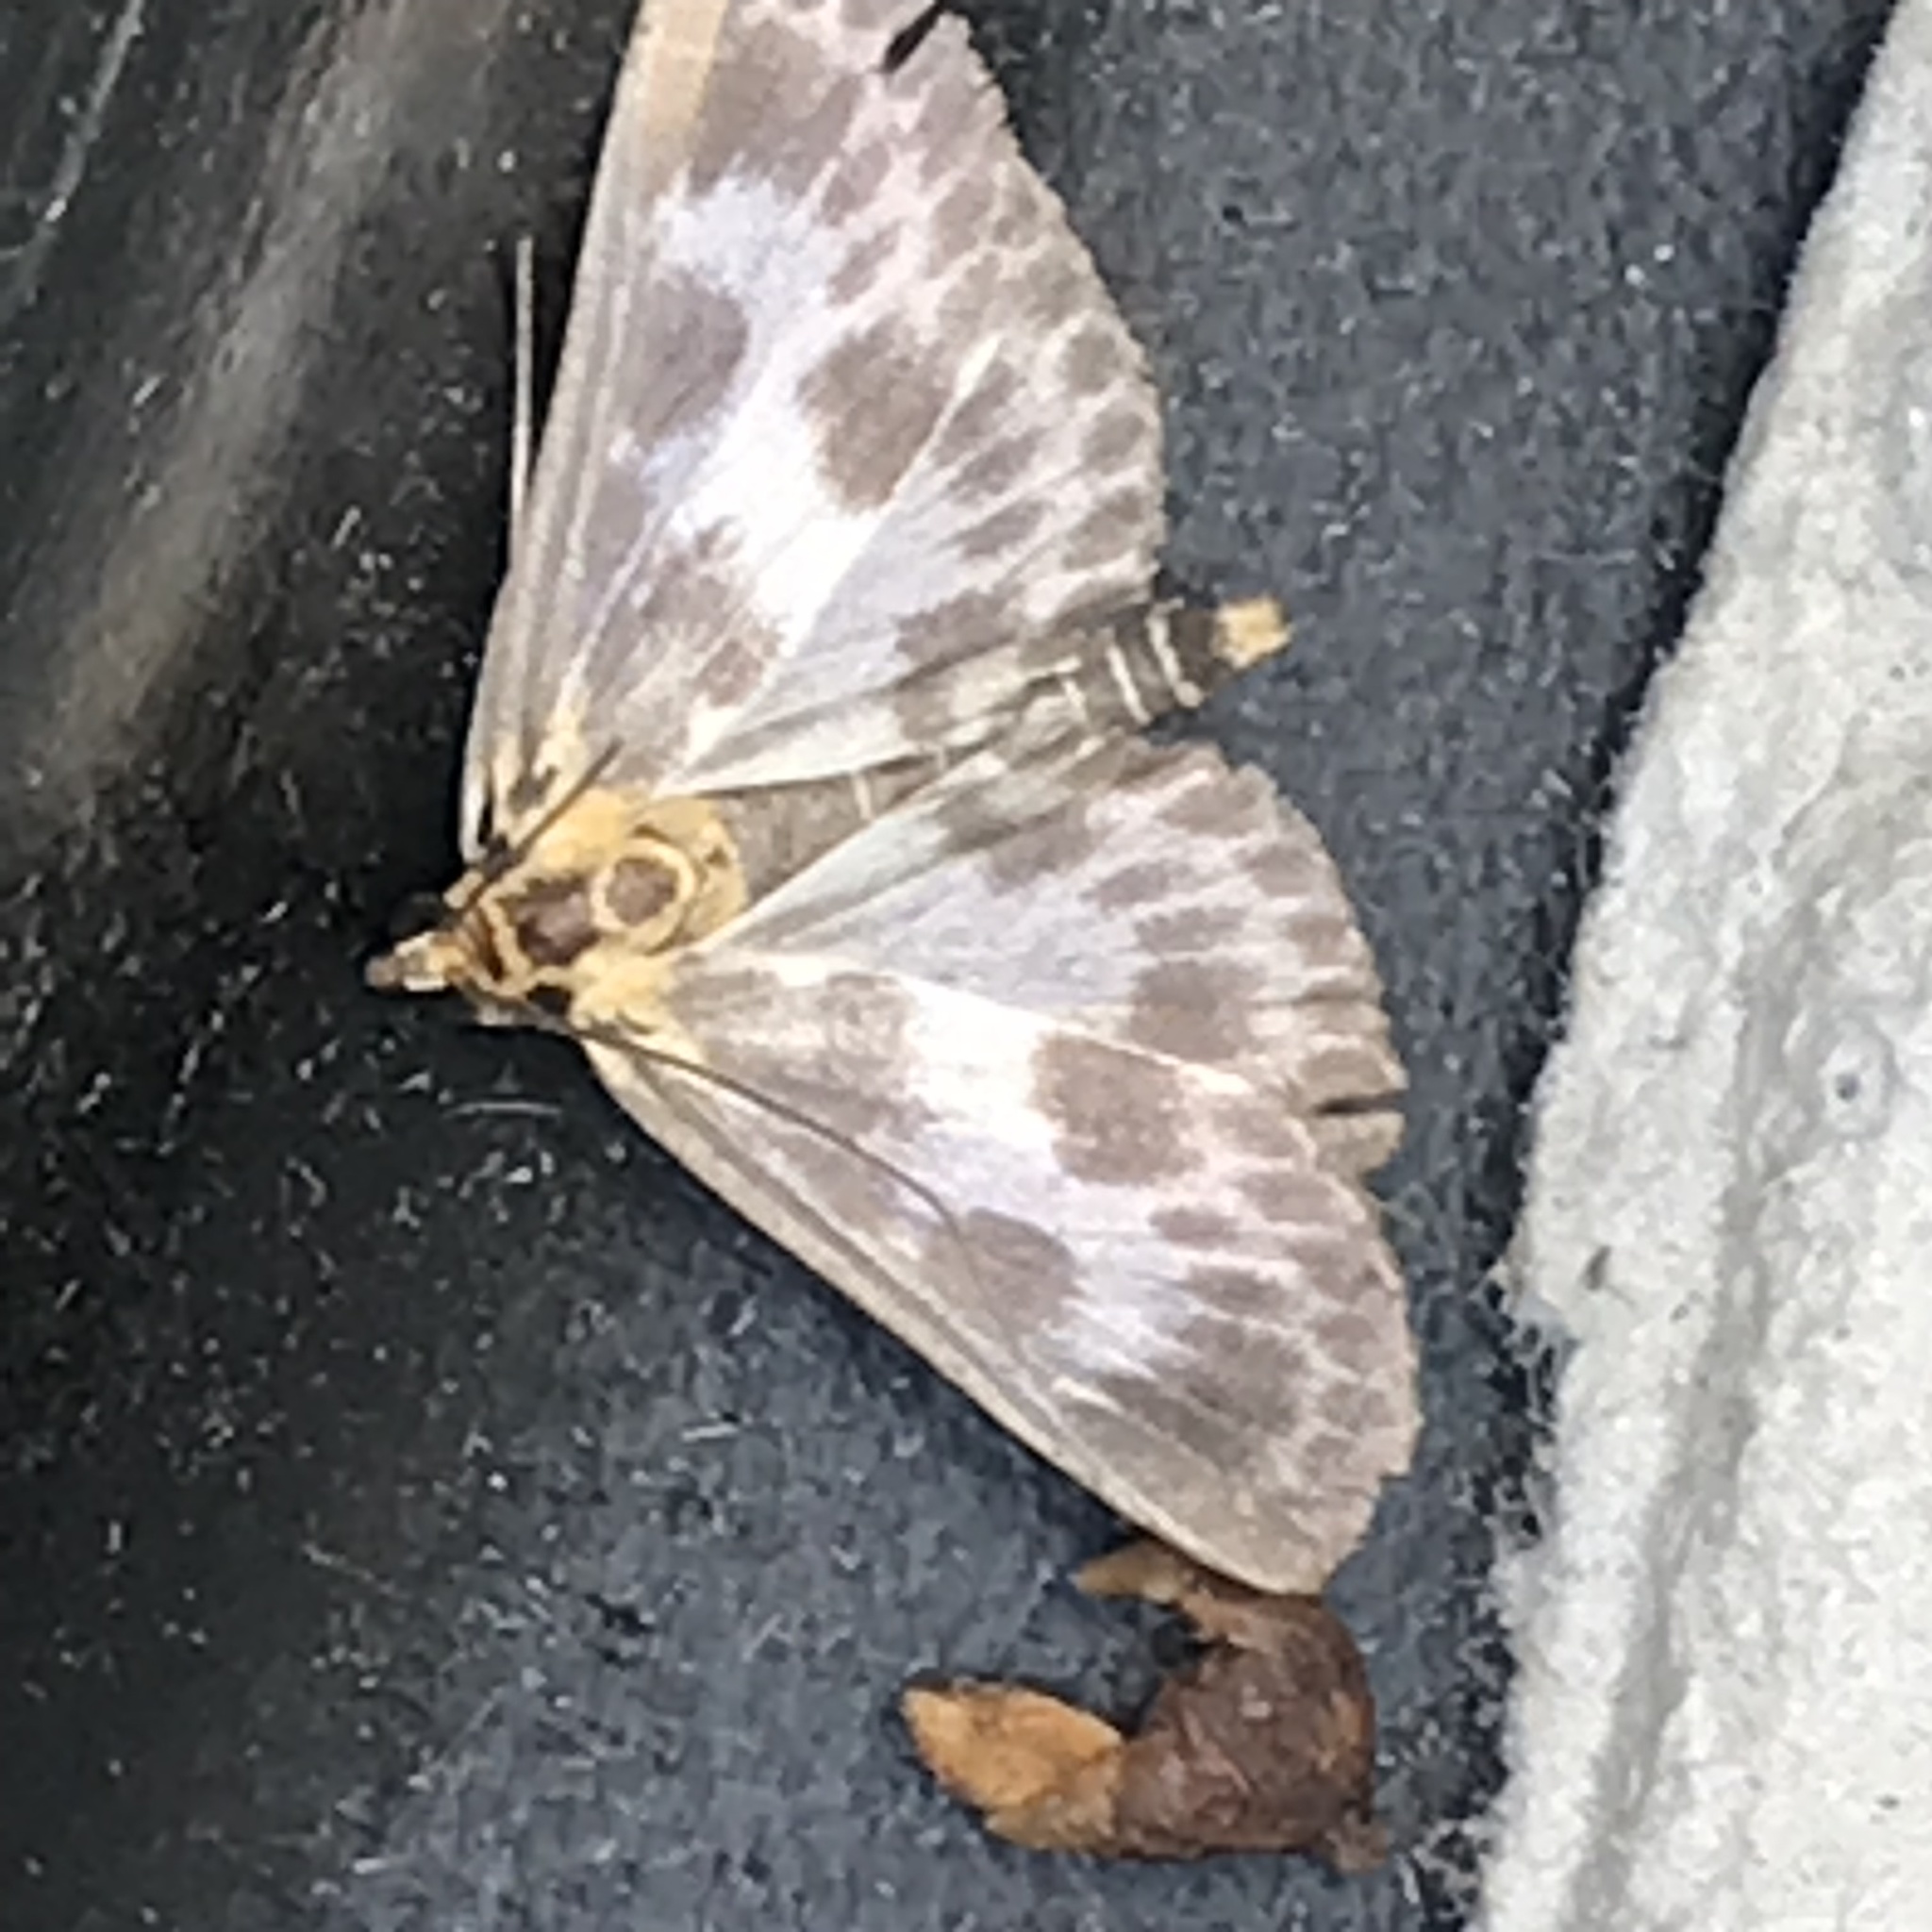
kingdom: Animalia
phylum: Arthropoda
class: Insecta
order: Lepidoptera
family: Crambidae
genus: Anania
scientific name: Anania hortulata
